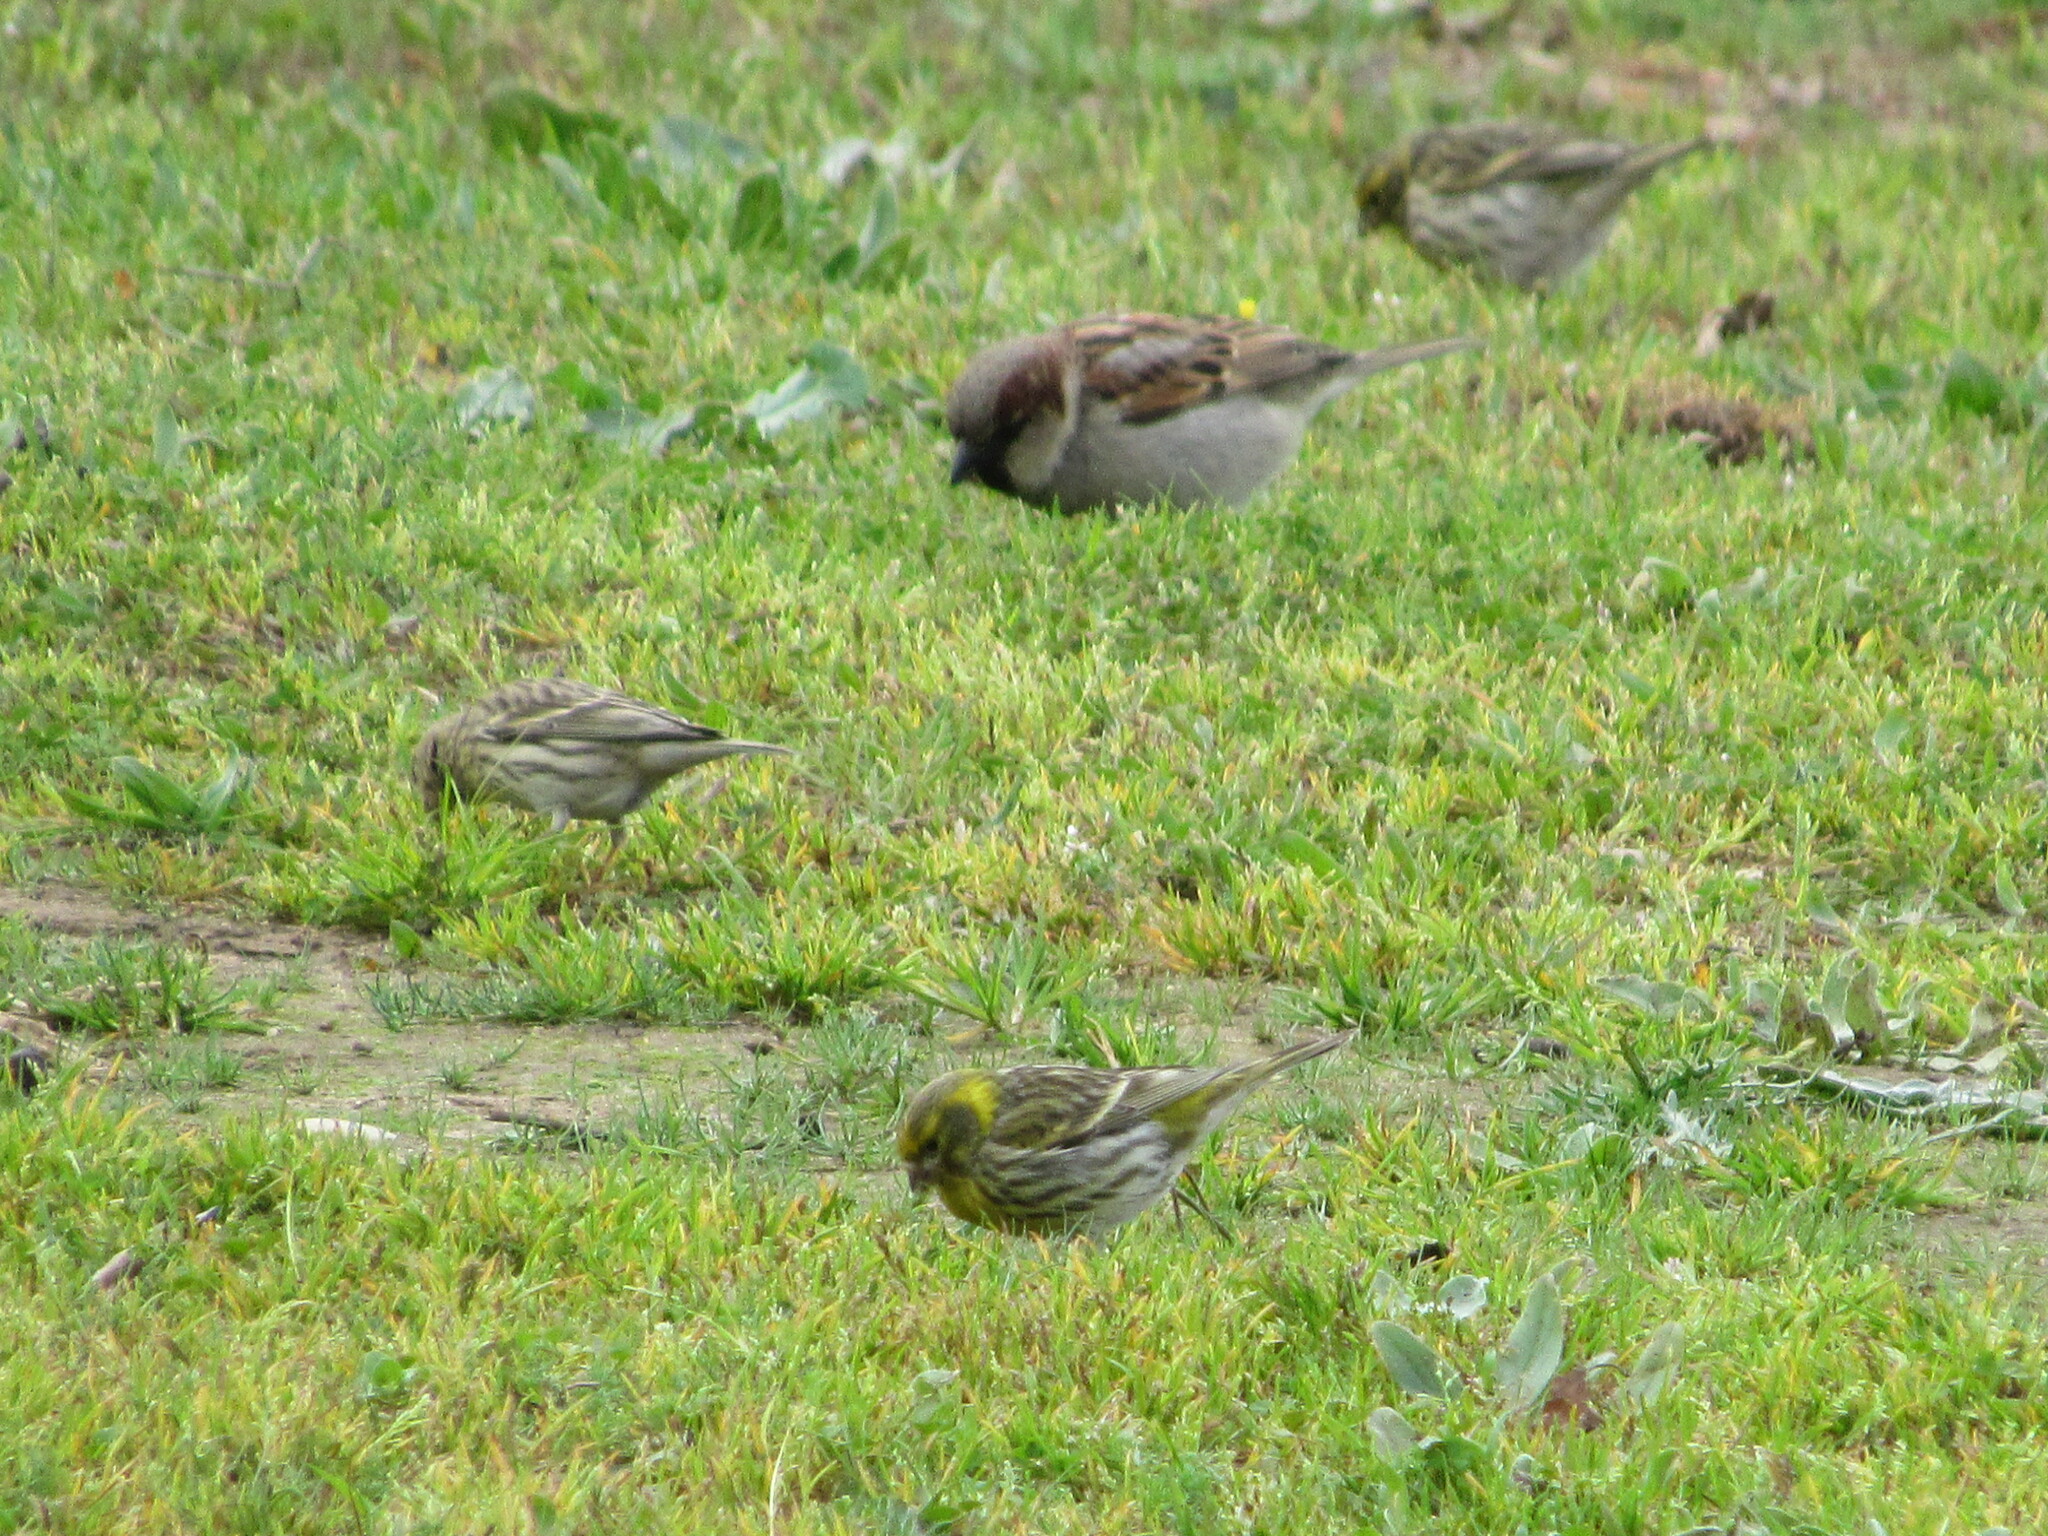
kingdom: Animalia
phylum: Chordata
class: Aves
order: Passeriformes
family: Fringillidae
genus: Serinus
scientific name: Serinus serinus
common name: European serin
